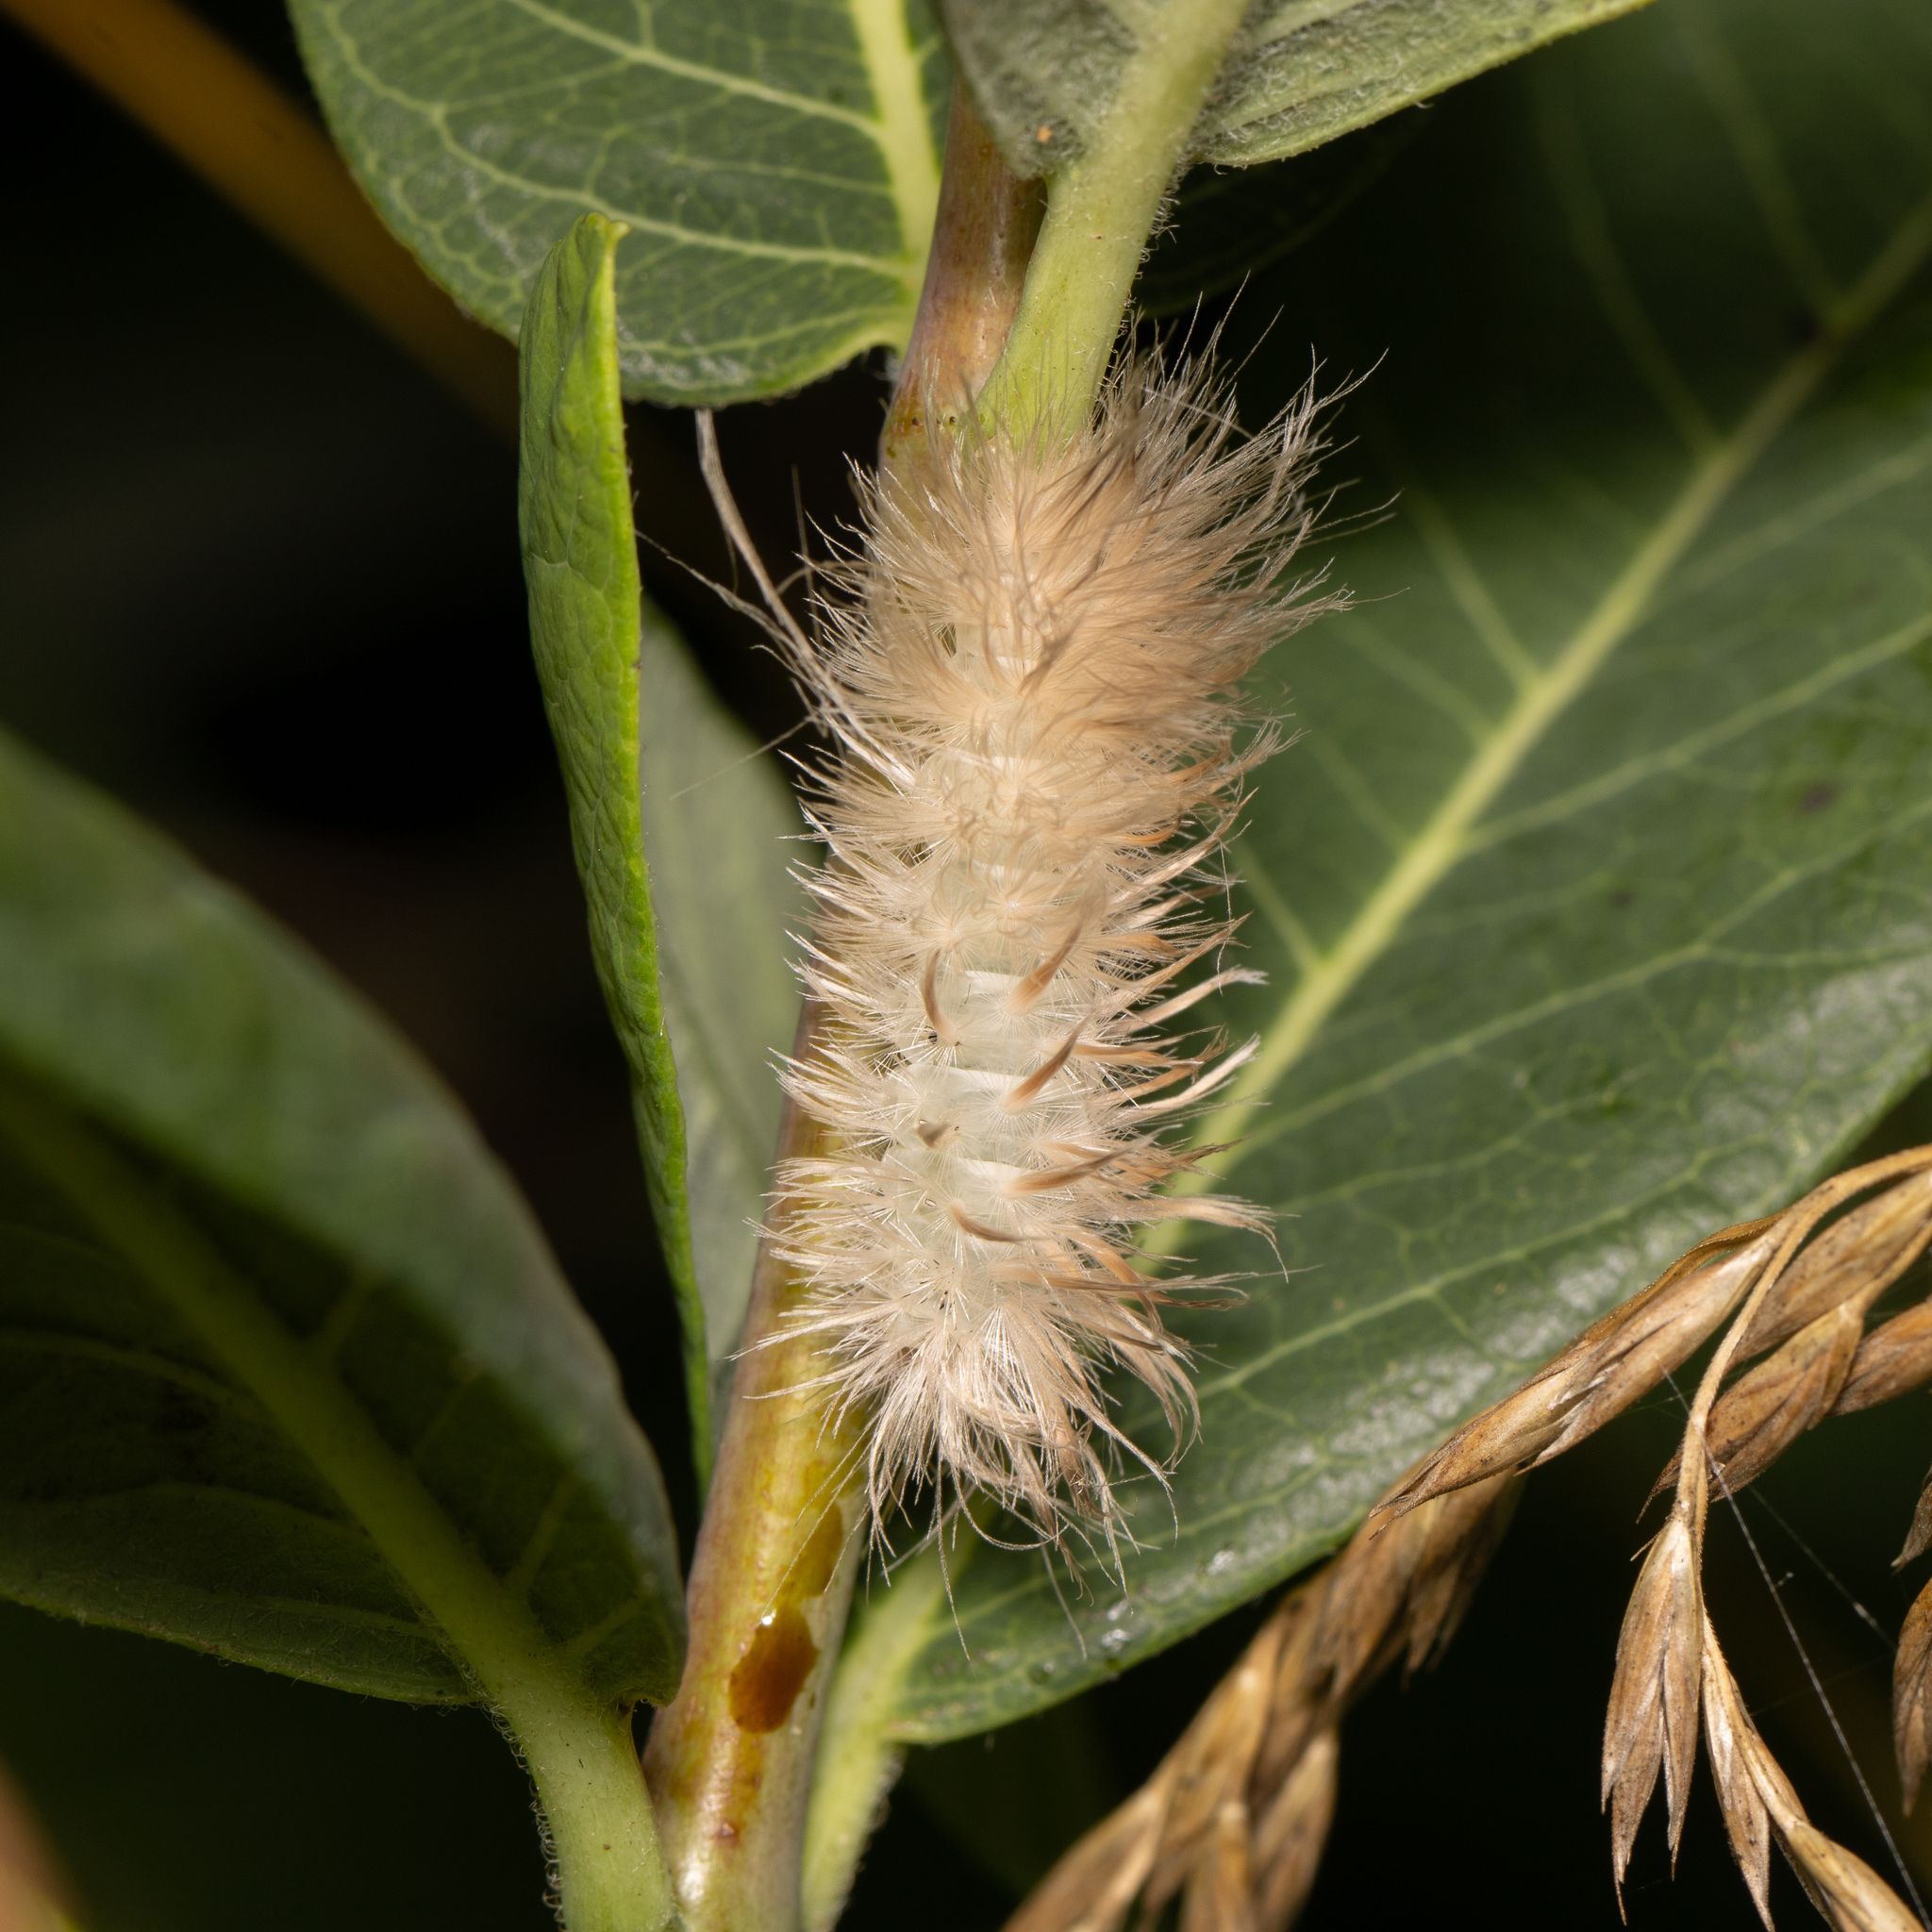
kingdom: Animalia
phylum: Arthropoda
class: Insecta
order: Lepidoptera
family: Erebidae
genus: Cycnia
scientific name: Cycnia tenera
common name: Delicate cycnia moth
